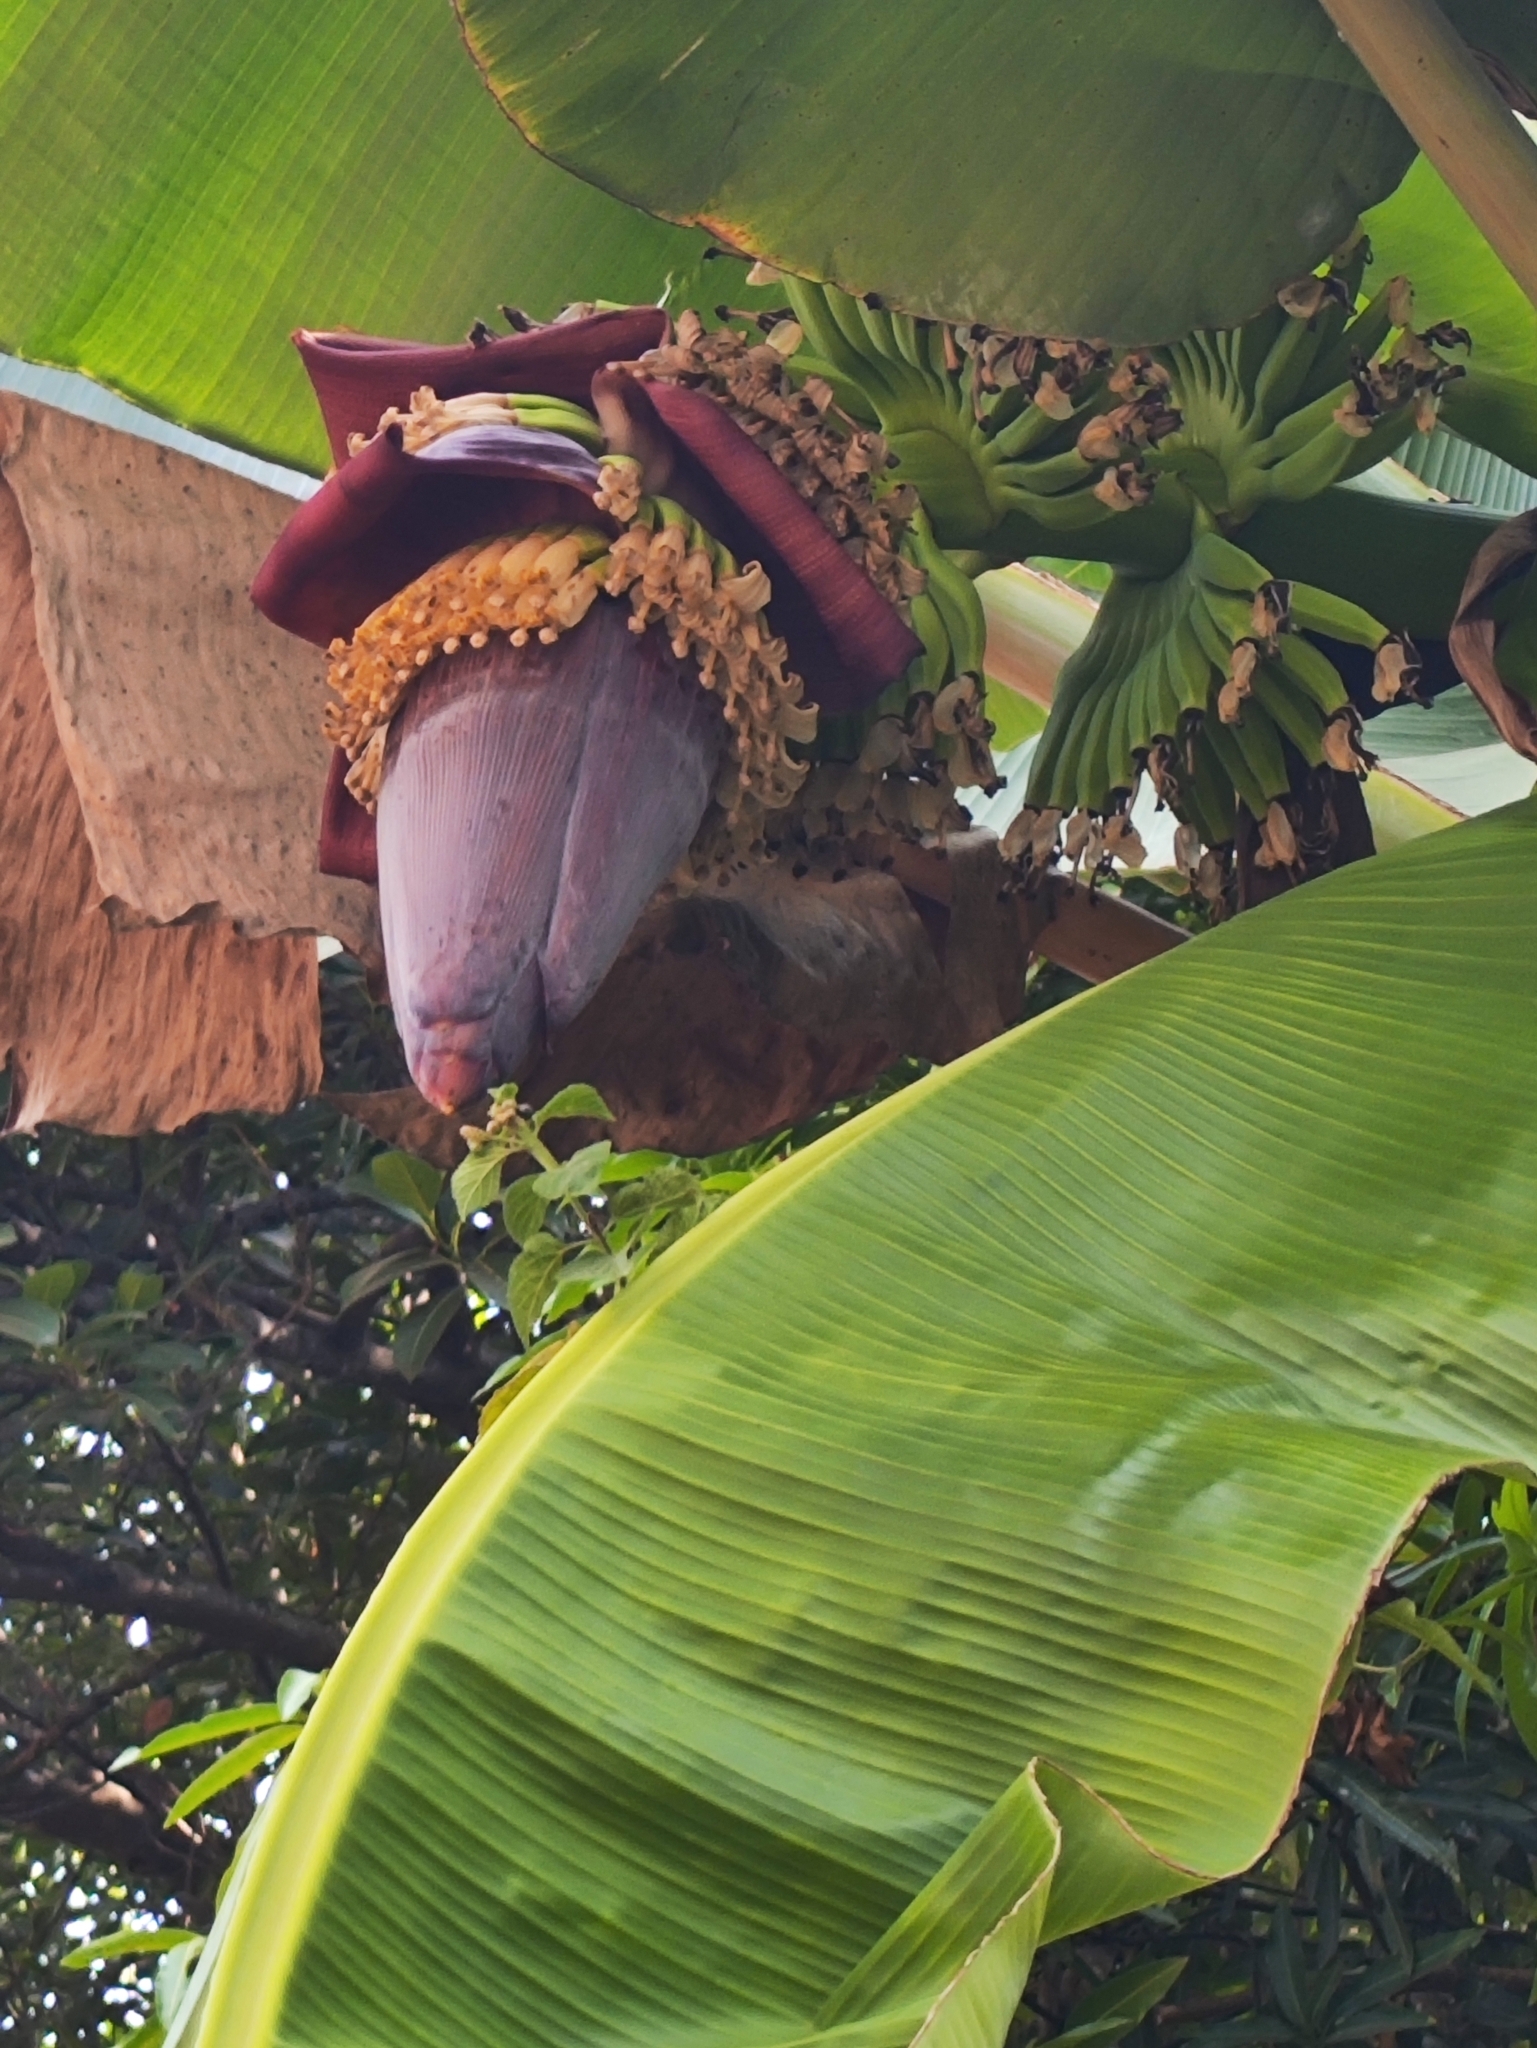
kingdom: Plantae
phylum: Tracheophyta
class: Liliopsida
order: Zingiberales
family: Musaceae
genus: Musa
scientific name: Musa paradisiaca
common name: French plantain
